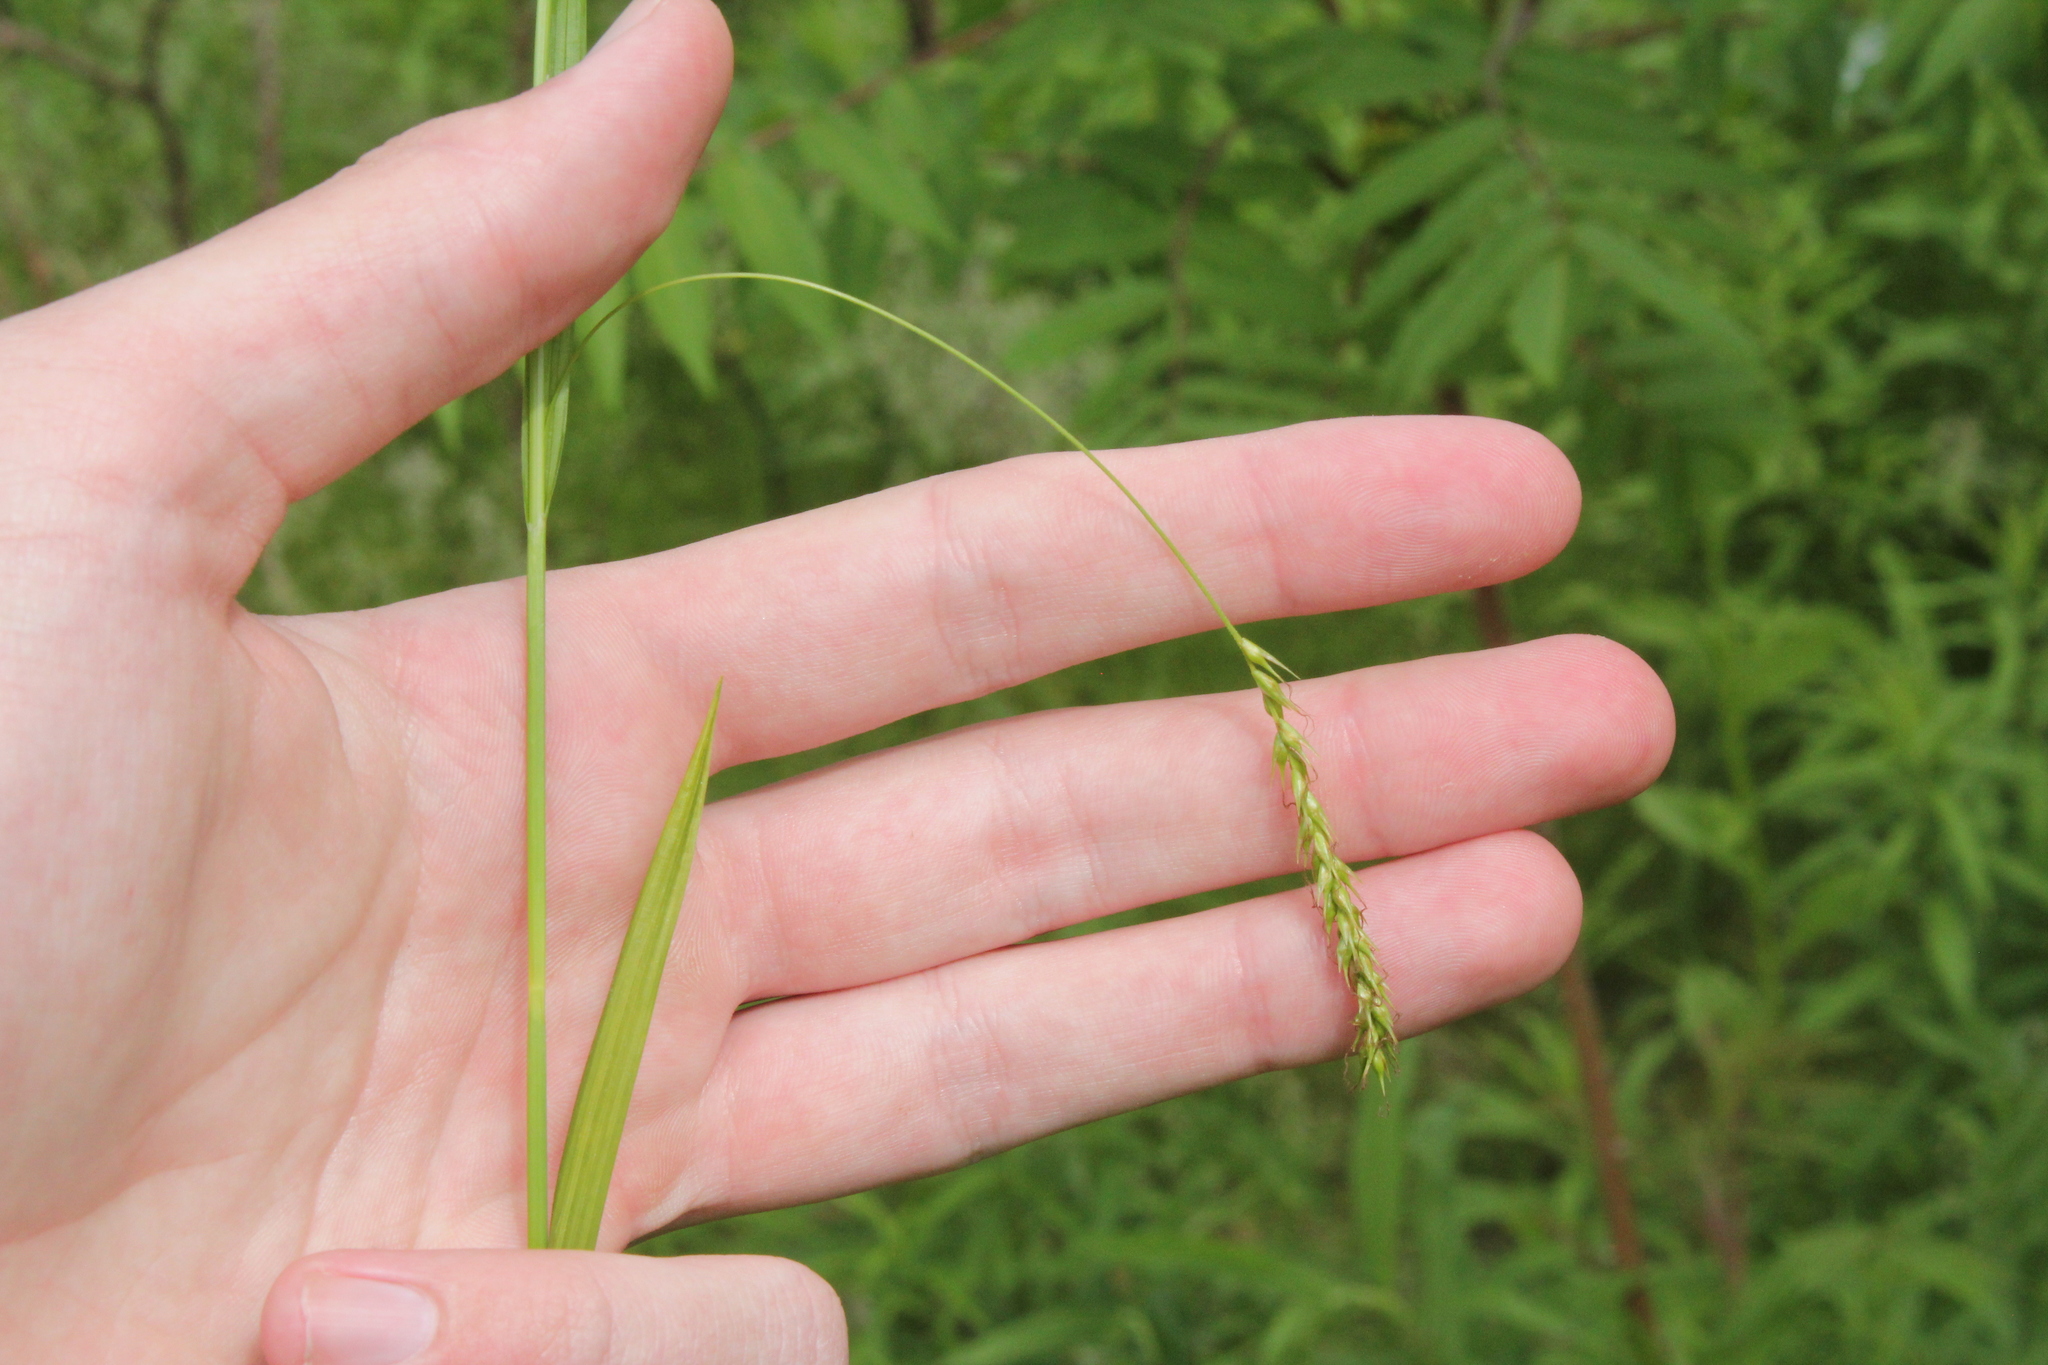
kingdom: Plantae
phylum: Tracheophyta
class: Liliopsida
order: Poales
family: Cyperaceae
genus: Carex
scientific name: Carex sylvatica
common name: Wood-sedge
